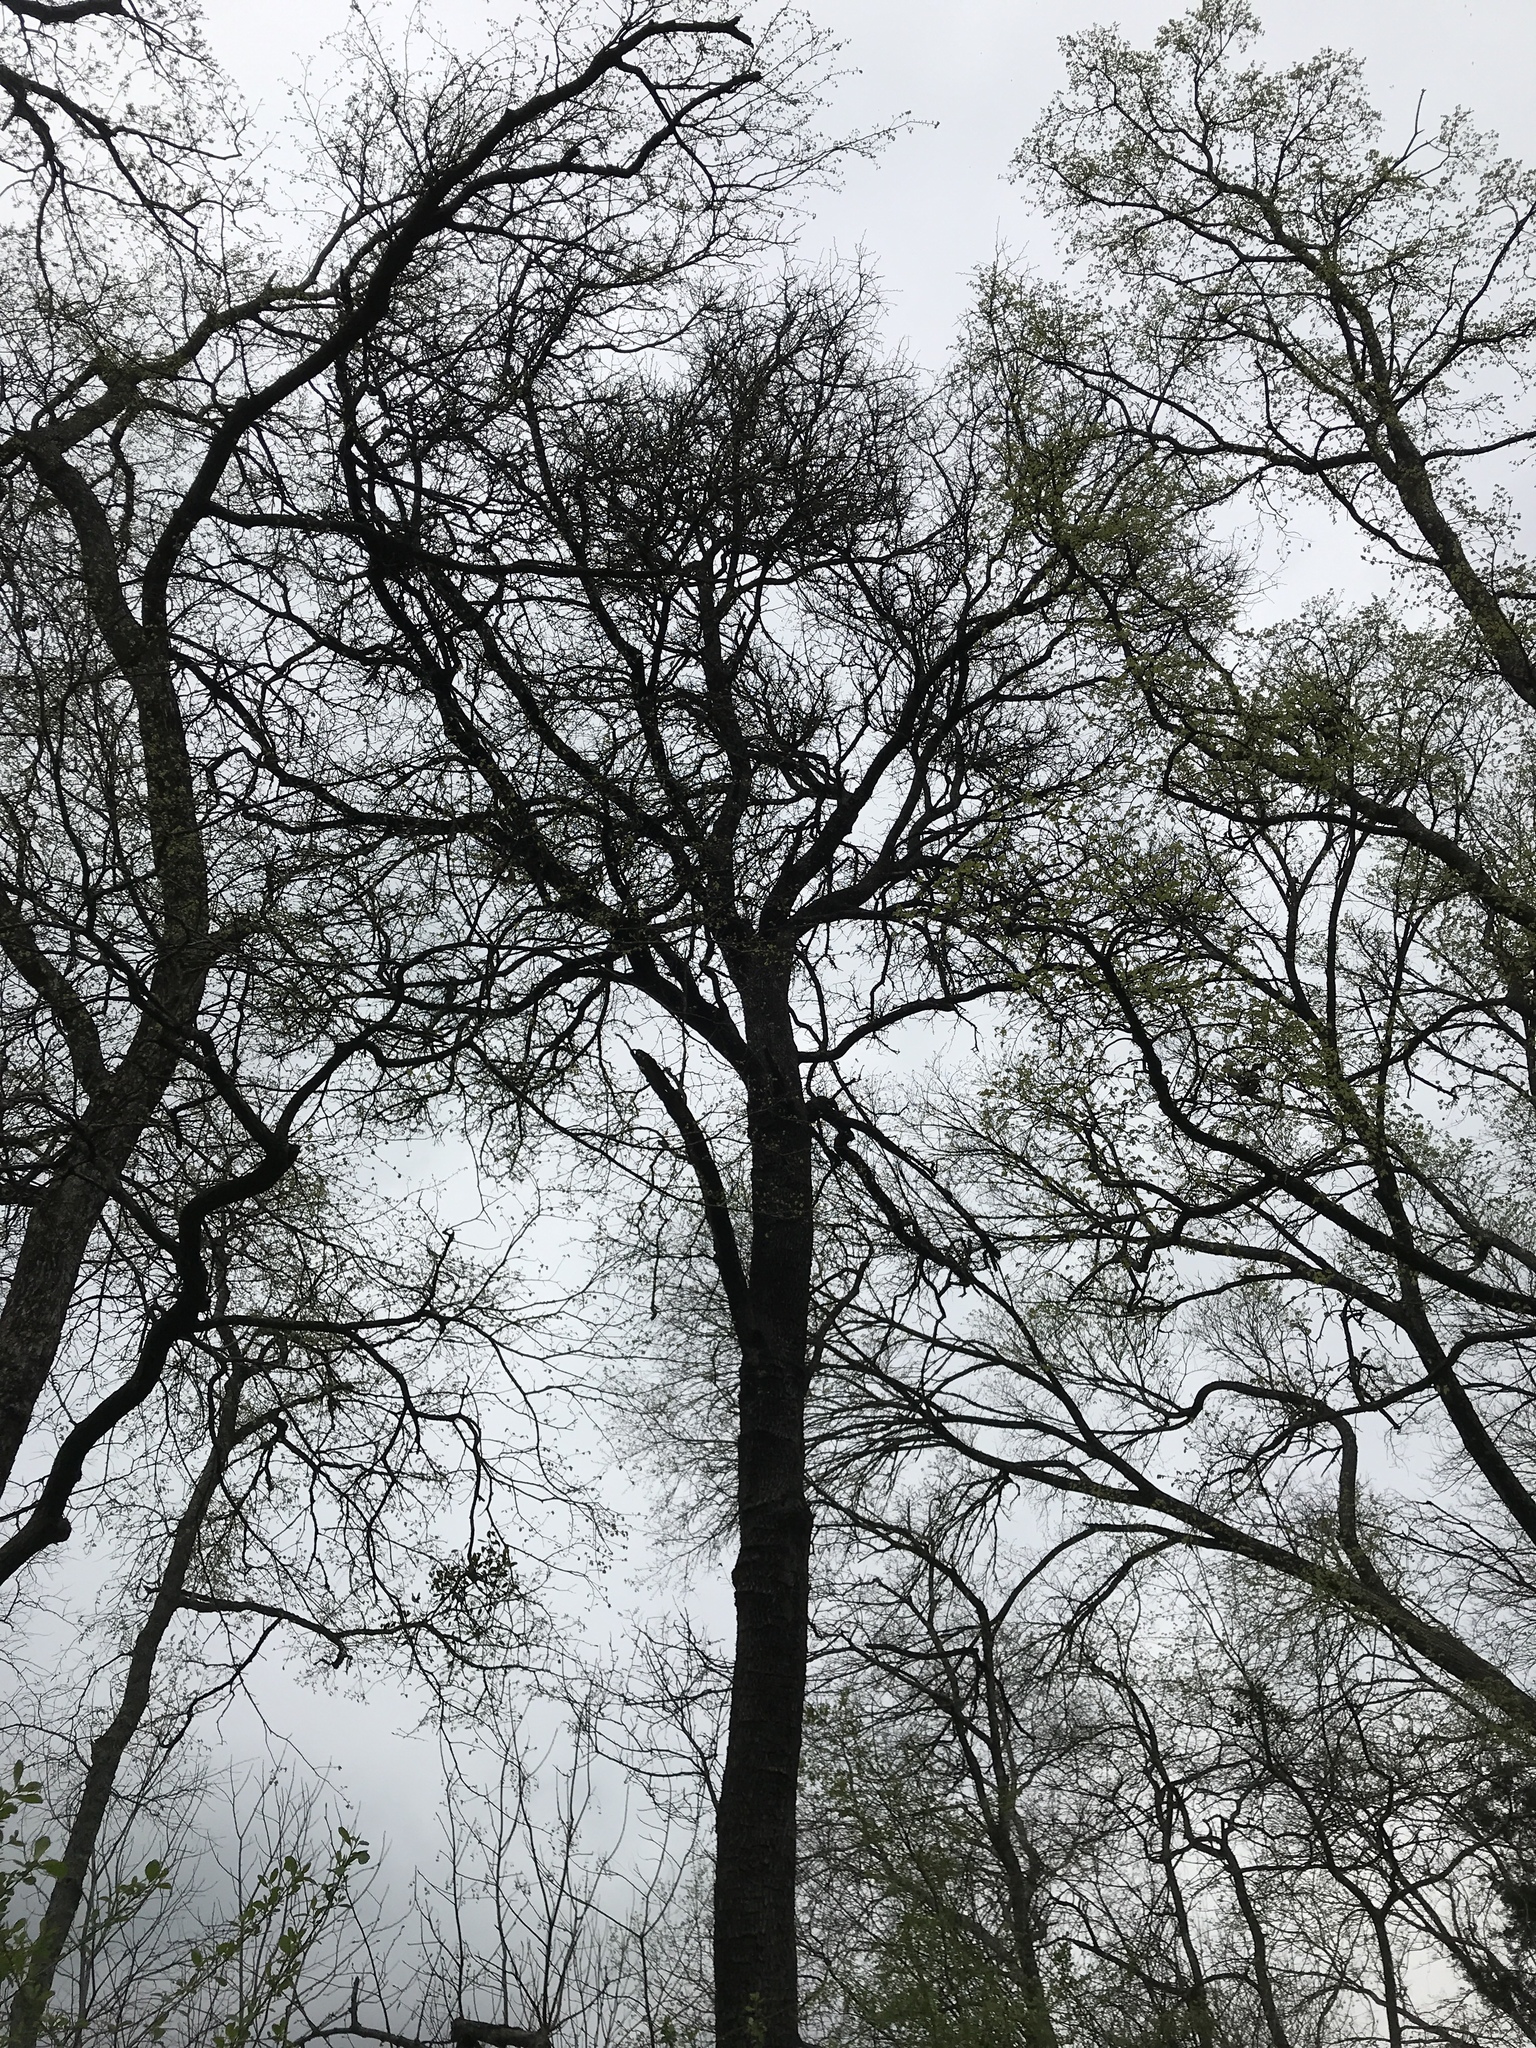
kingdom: Plantae
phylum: Tracheophyta
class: Magnoliopsida
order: Ericales
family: Sapotaceae
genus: Sideroxylon
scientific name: Sideroxylon lanuginosum
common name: Chittamwood
